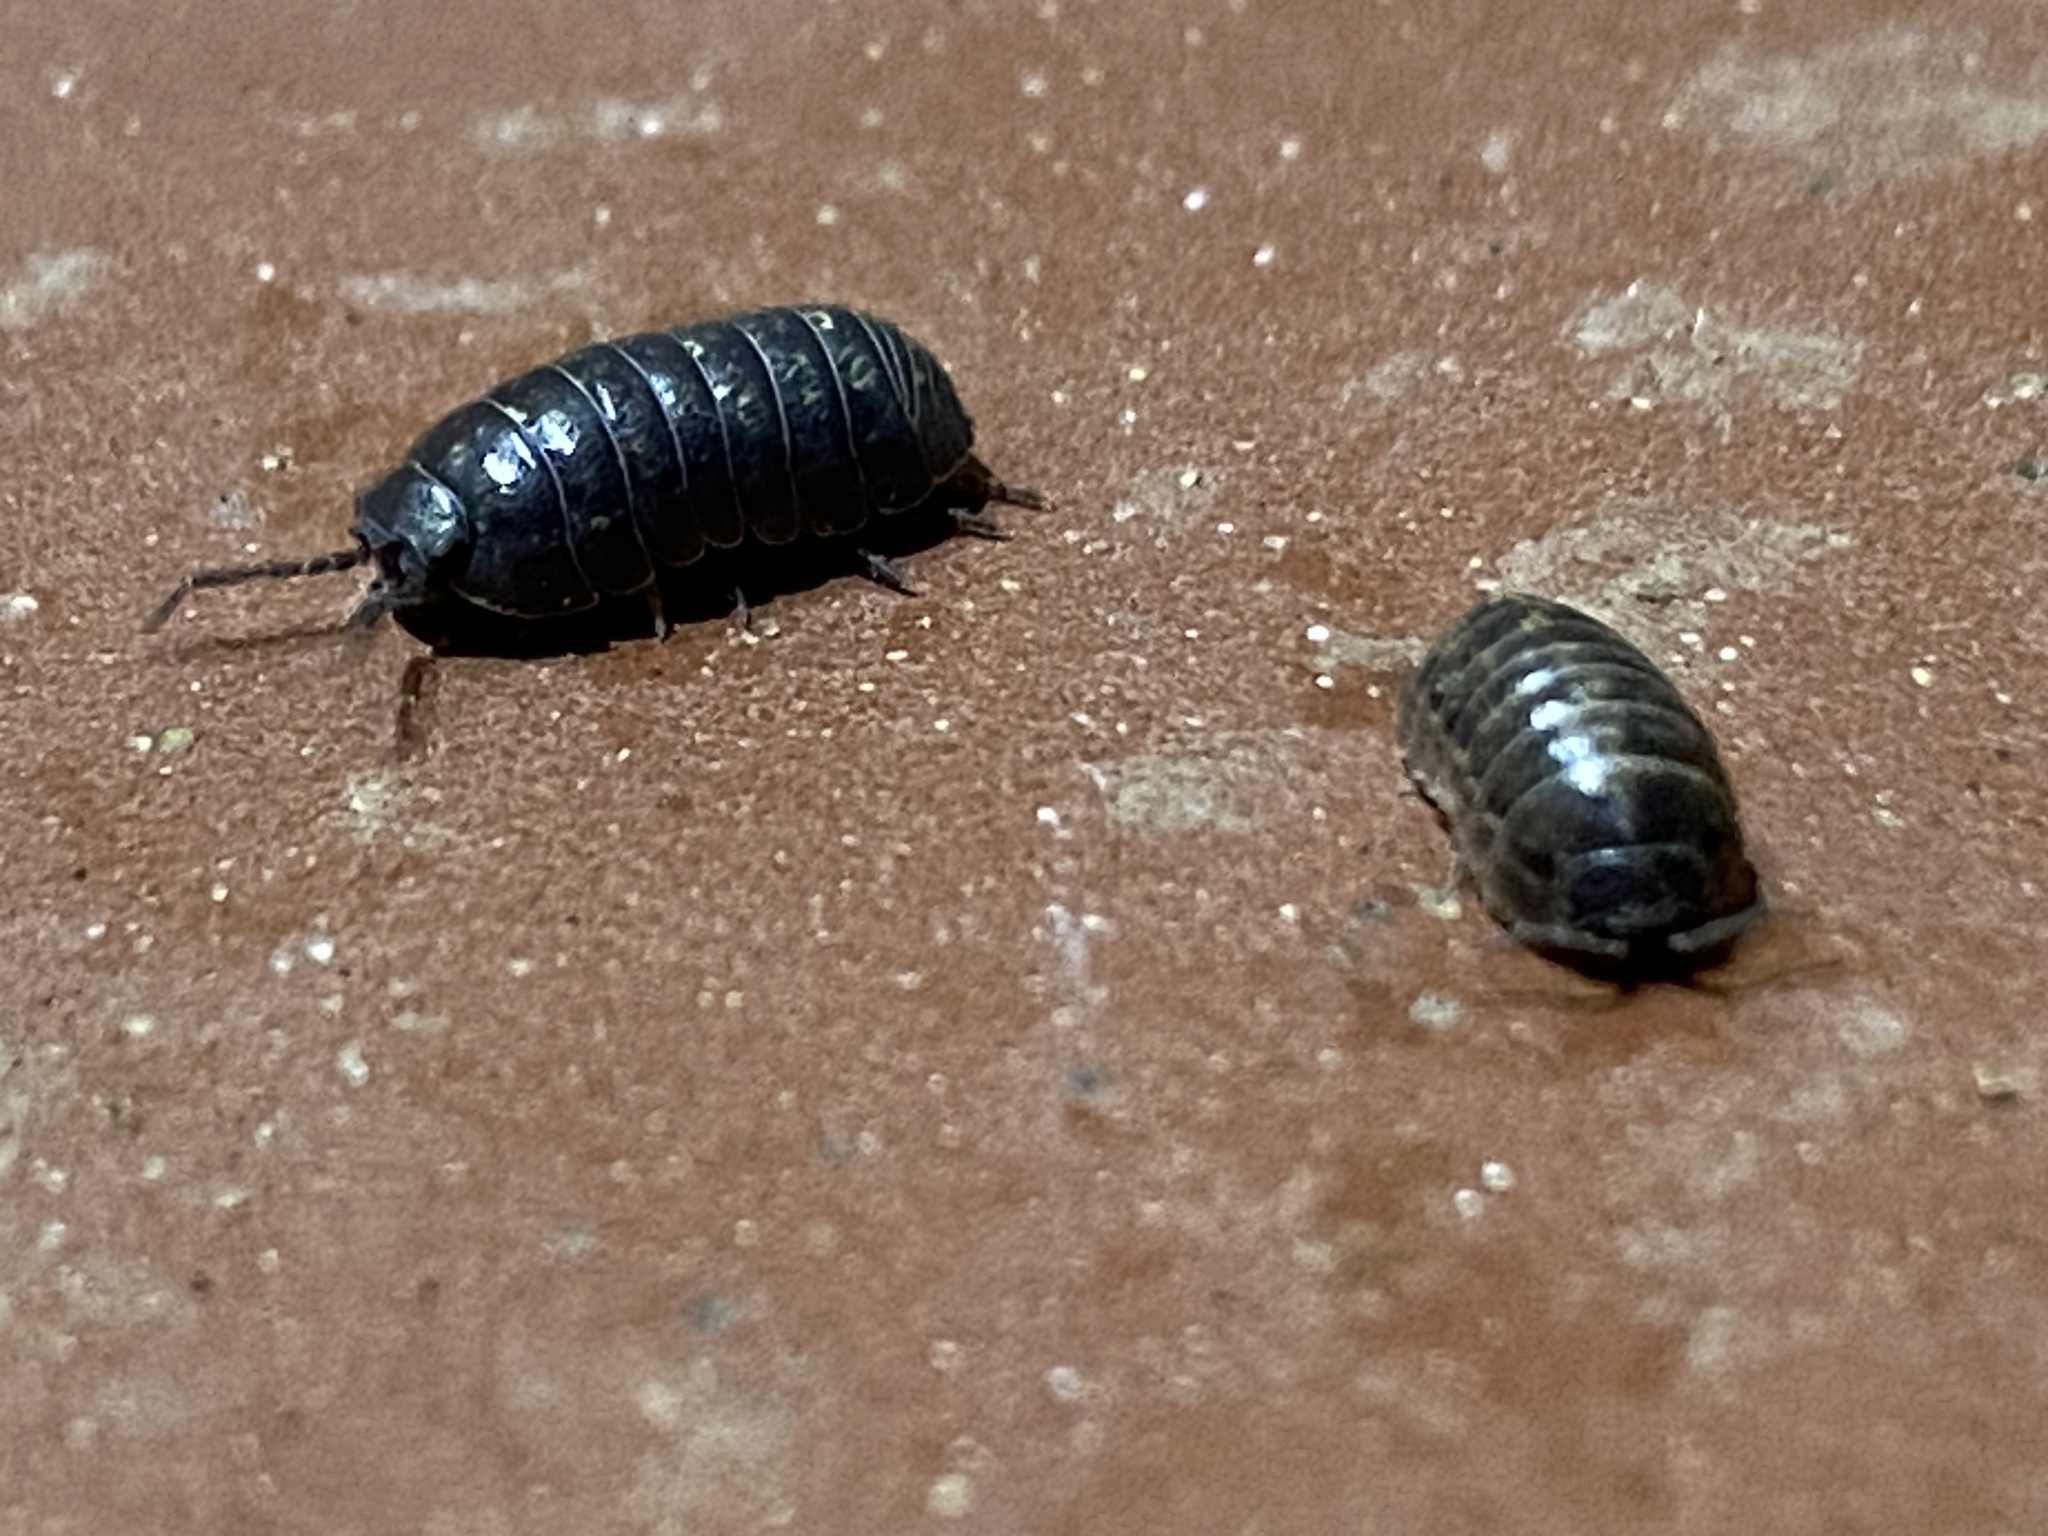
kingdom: Animalia
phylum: Arthropoda
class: Malacostraca
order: Isopoda
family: Armadillidiidae
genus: Armadillidium
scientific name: Armadillidium vulgare
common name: Common pill woodlouse
